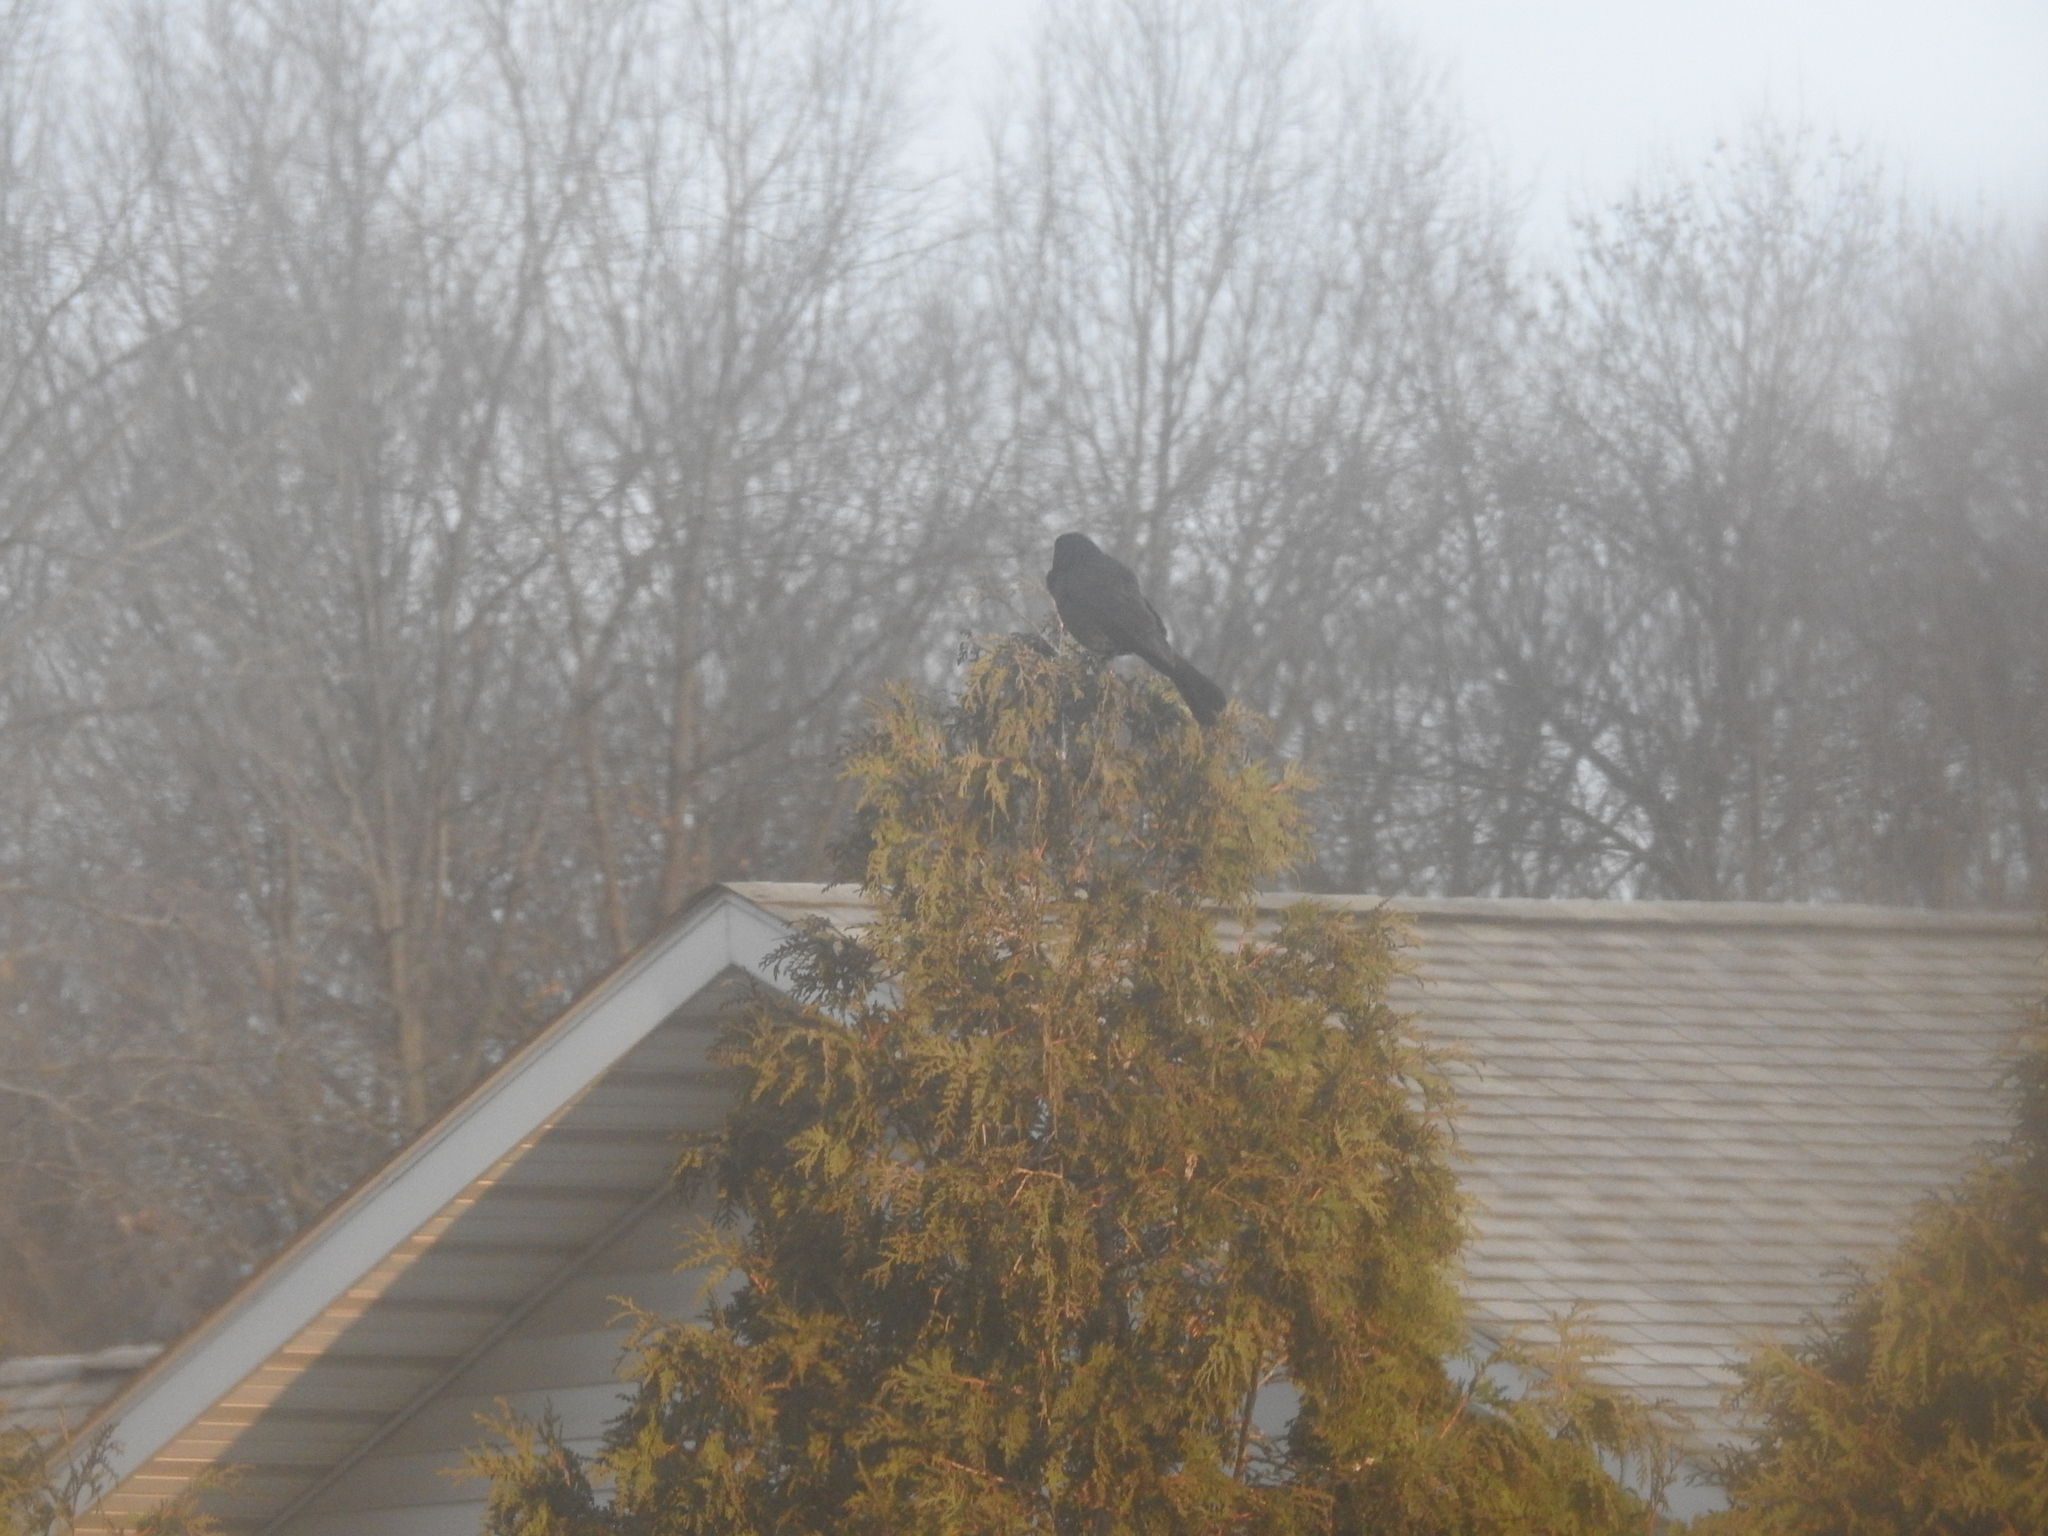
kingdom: Animalia
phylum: Chordata
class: Aves
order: Passeriformes
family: Icteridae
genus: Quiscalus
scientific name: Quiscalus quiscula
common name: Common grackle
